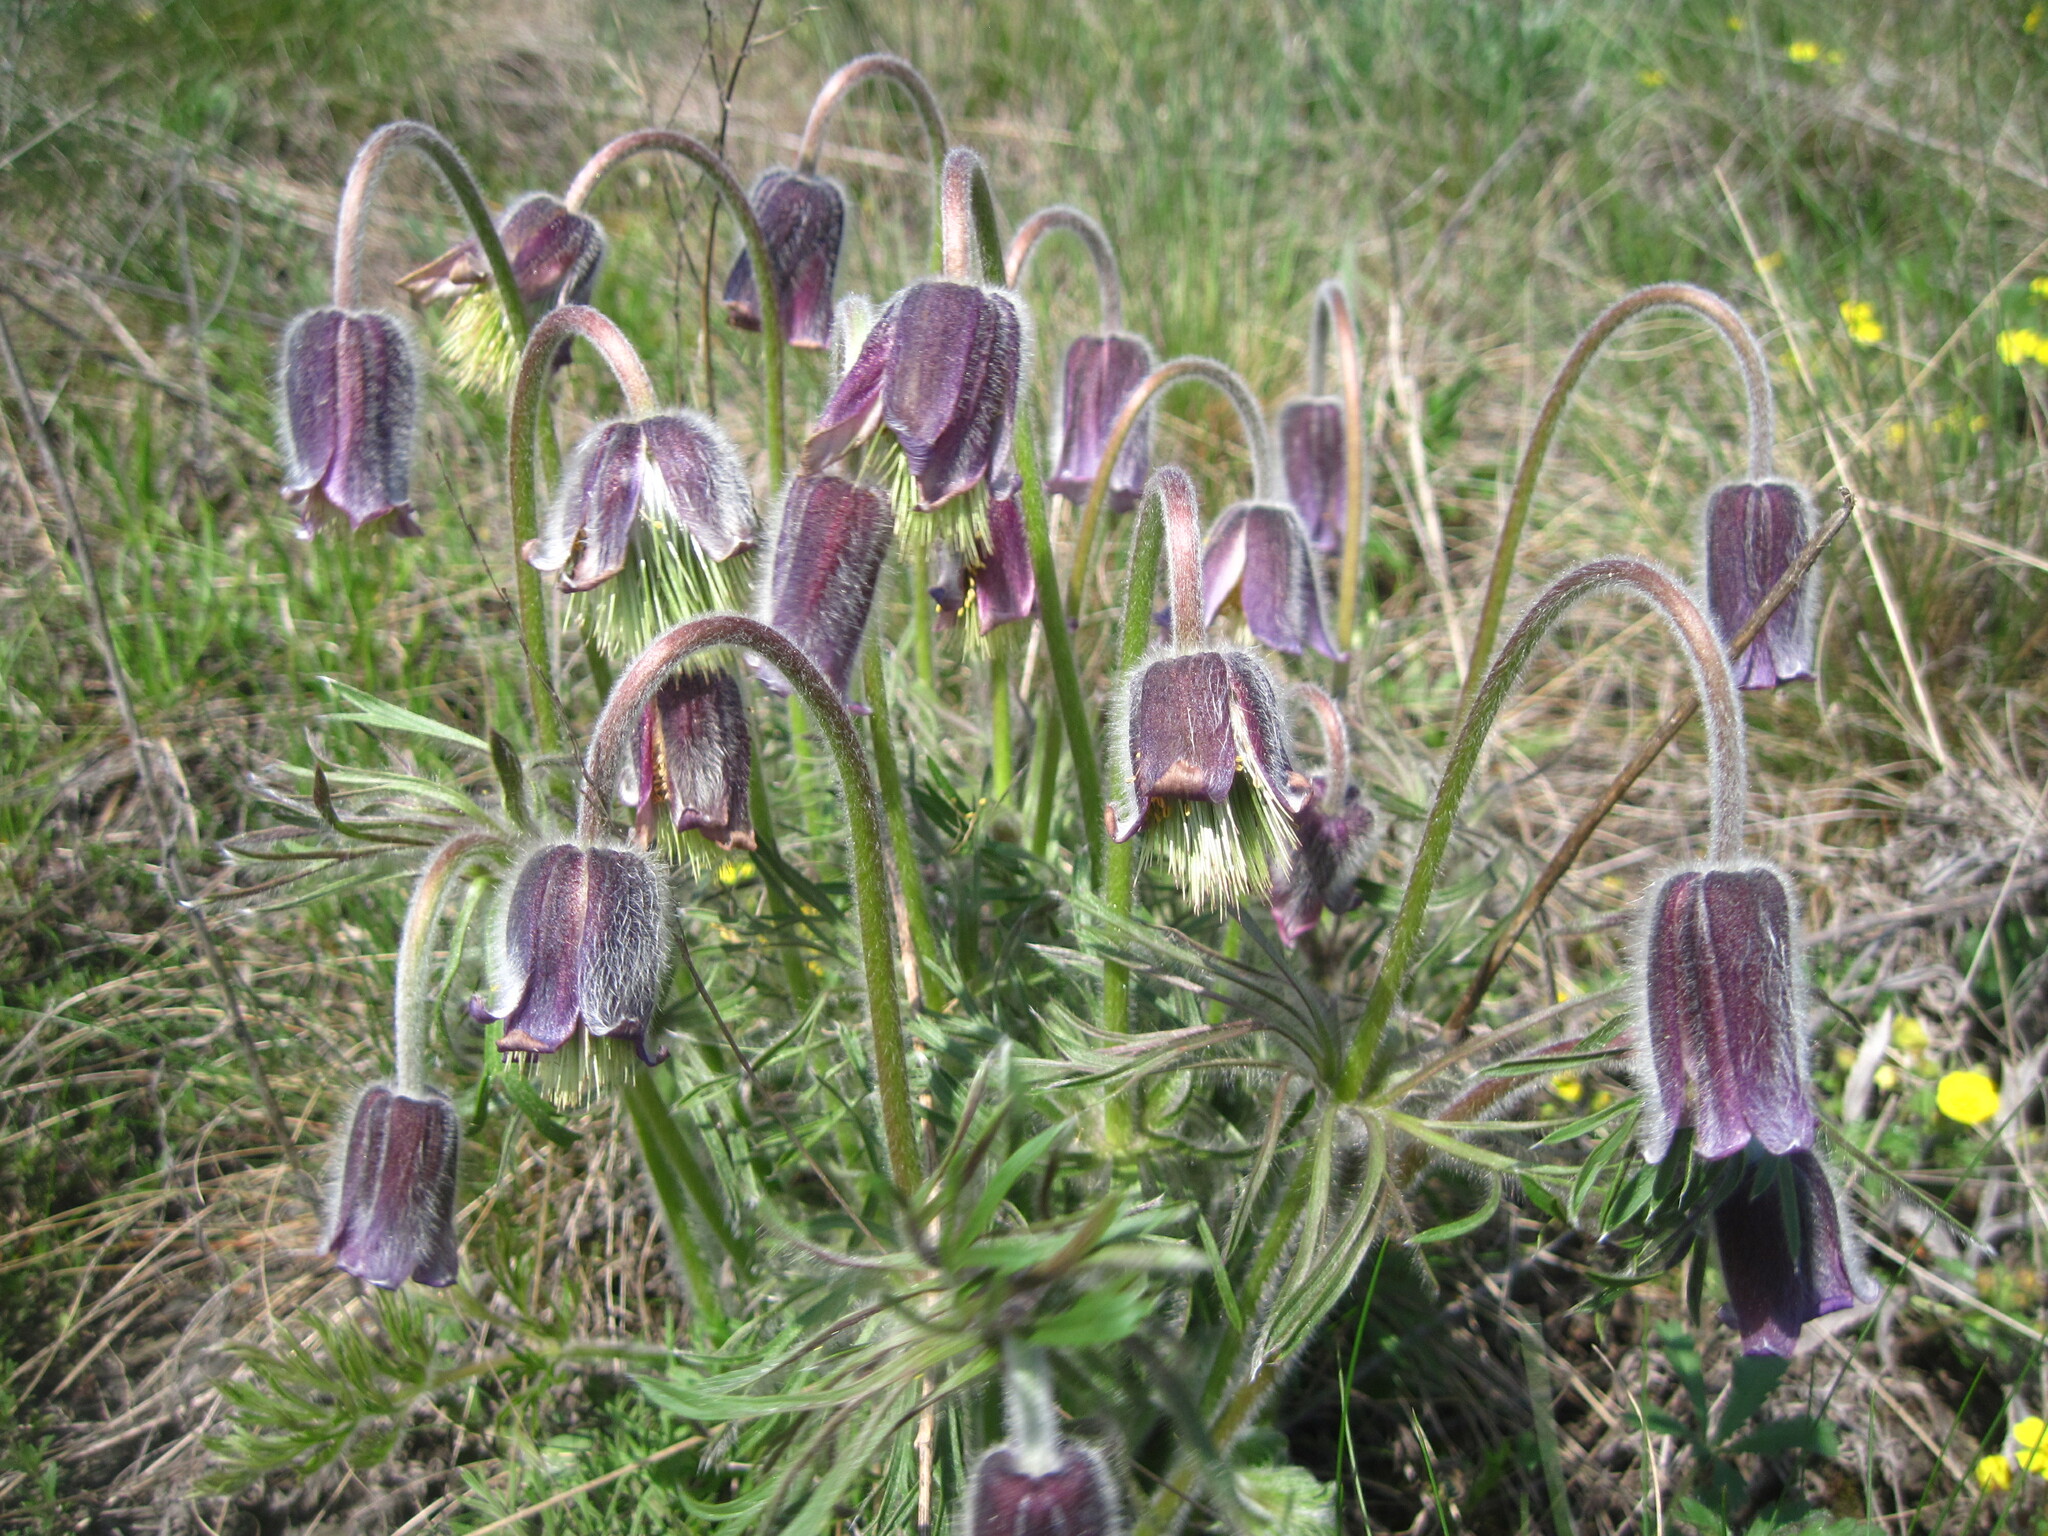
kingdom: Plantae
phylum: Tracheophyta
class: Magnoliopsida
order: Ranunculales
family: Ranunculaceae
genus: Pulsatilla
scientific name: Pulsatilla pratensis
